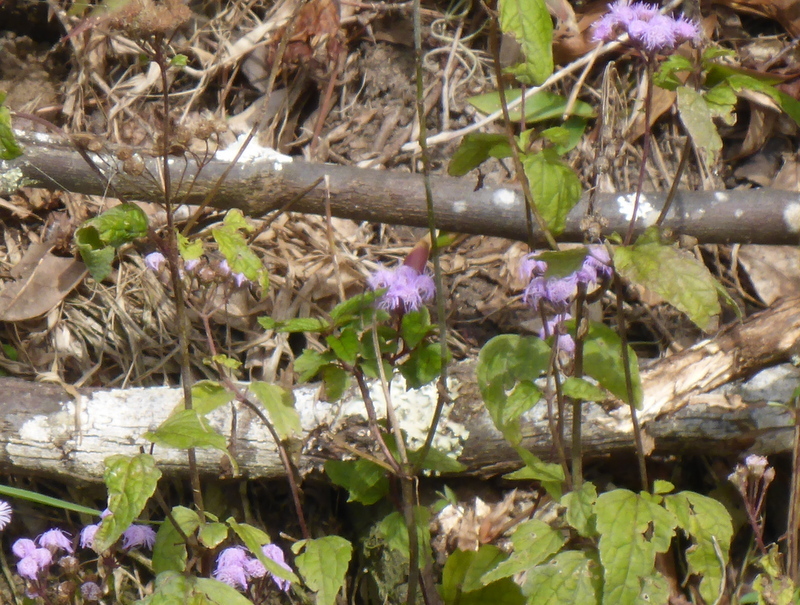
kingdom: Plantae
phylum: Tracheophyta
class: Magnoliopsida
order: Asterales
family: Asteraceae
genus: Conoclinium
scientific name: Conoclinium coelestinum
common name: Blue mistflower
